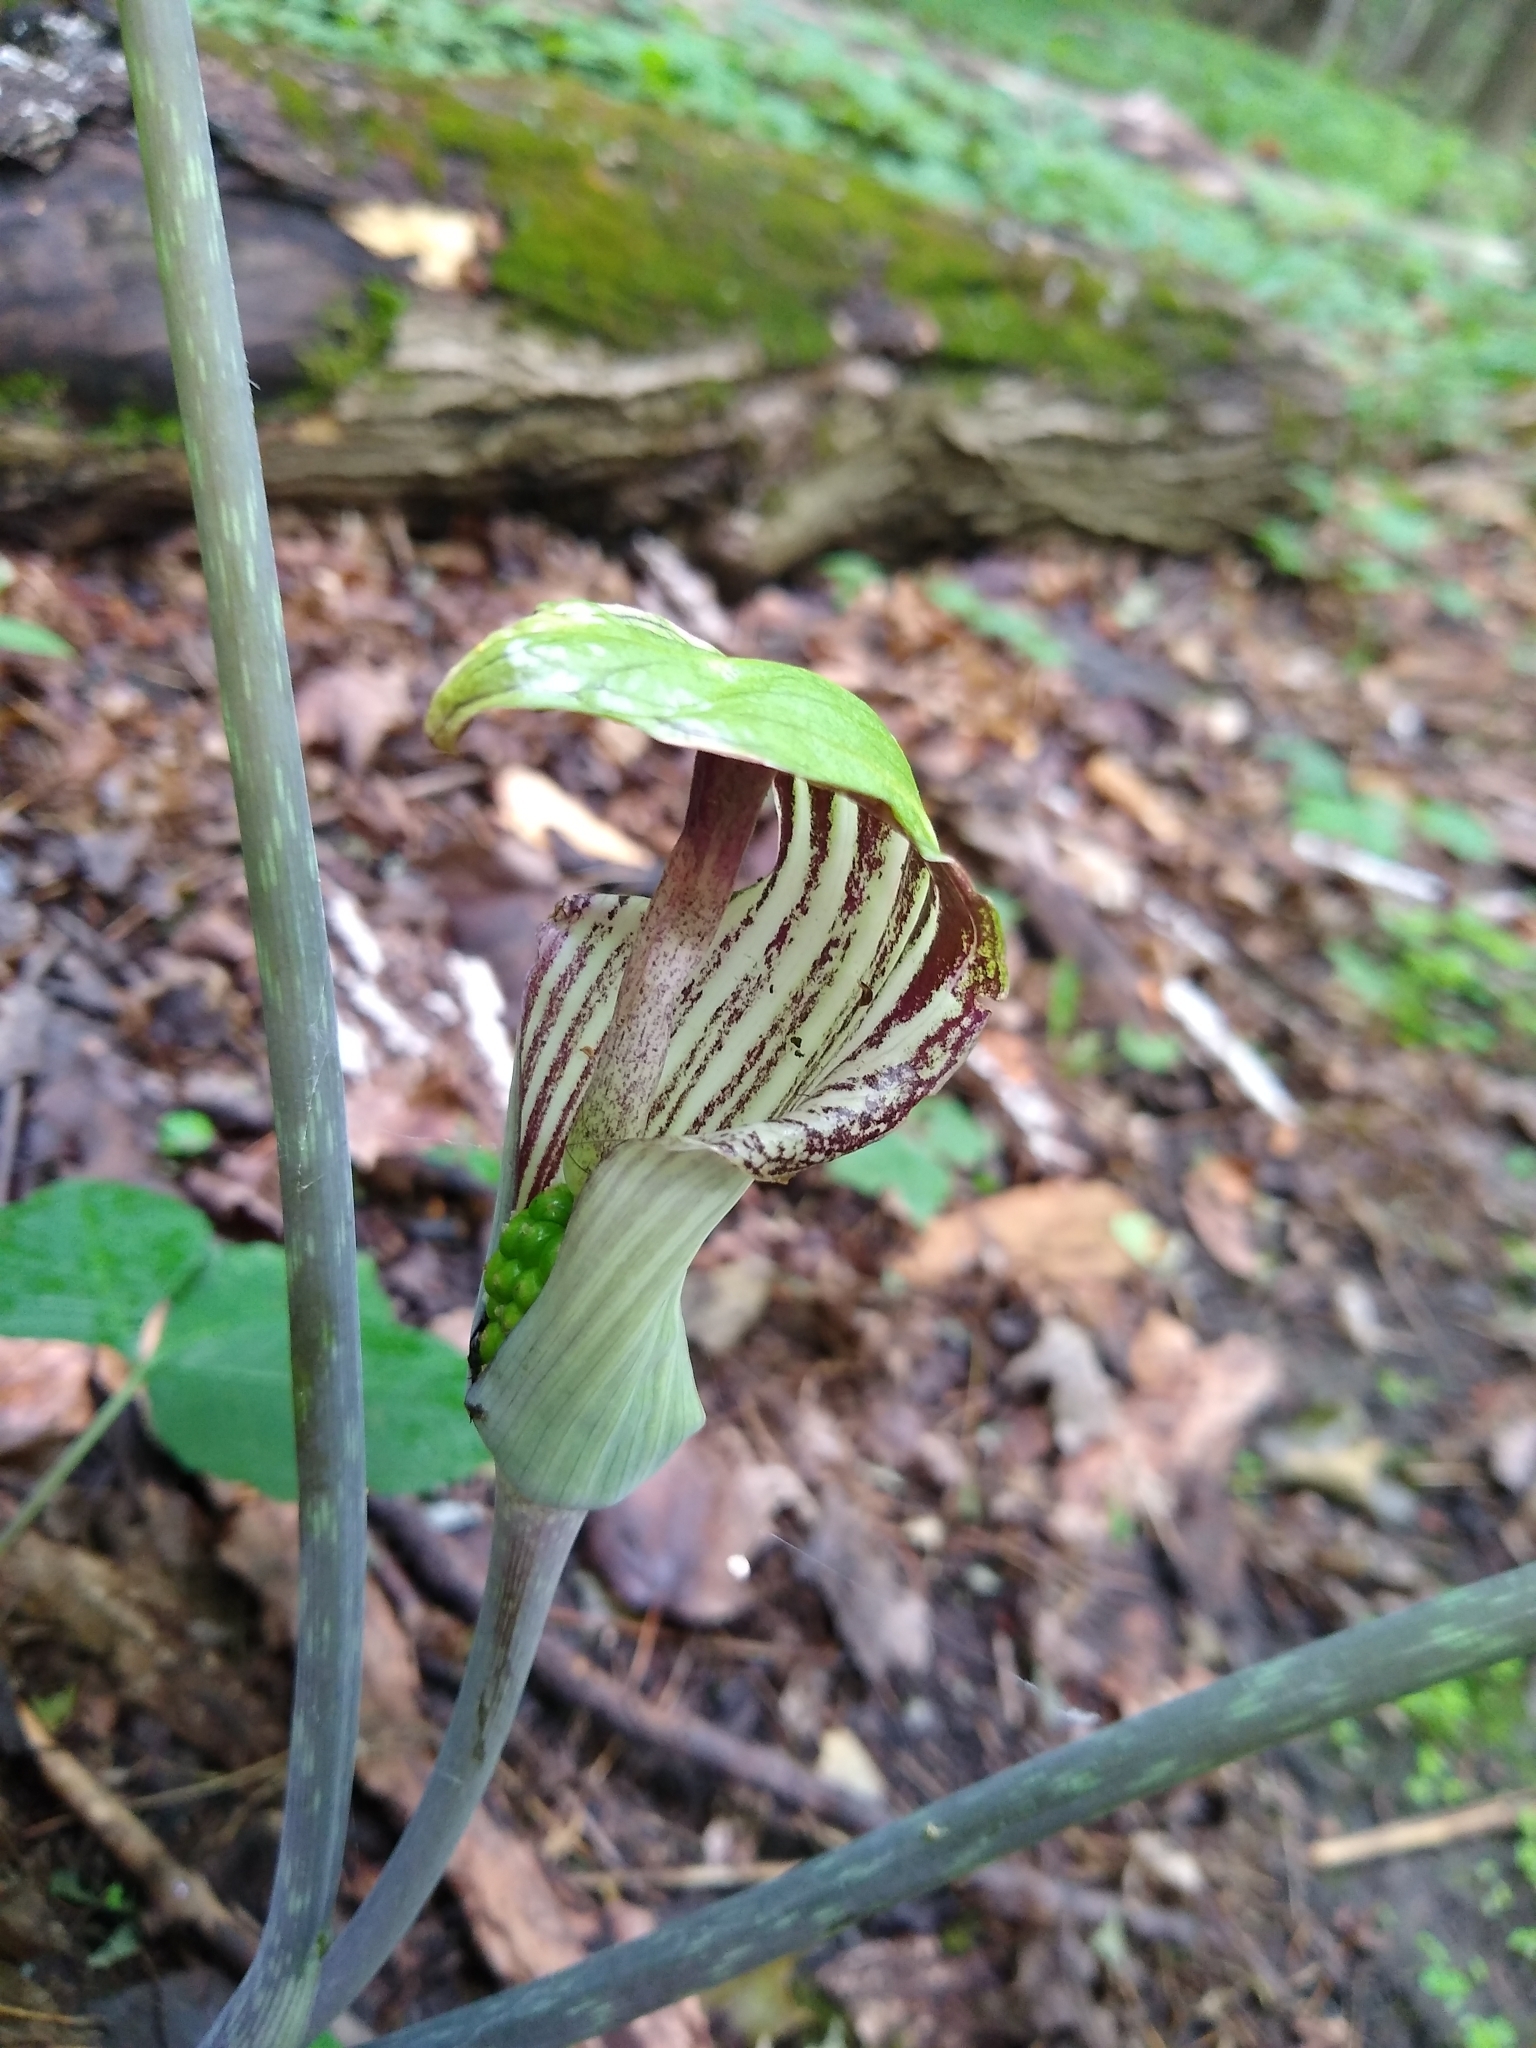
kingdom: Plantae
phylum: Tracheophyta
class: Liliopsida
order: Alismatales
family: Araceae
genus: Arisaema
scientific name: Arisaema triphyllum
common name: Jack-in-the-pulpit
